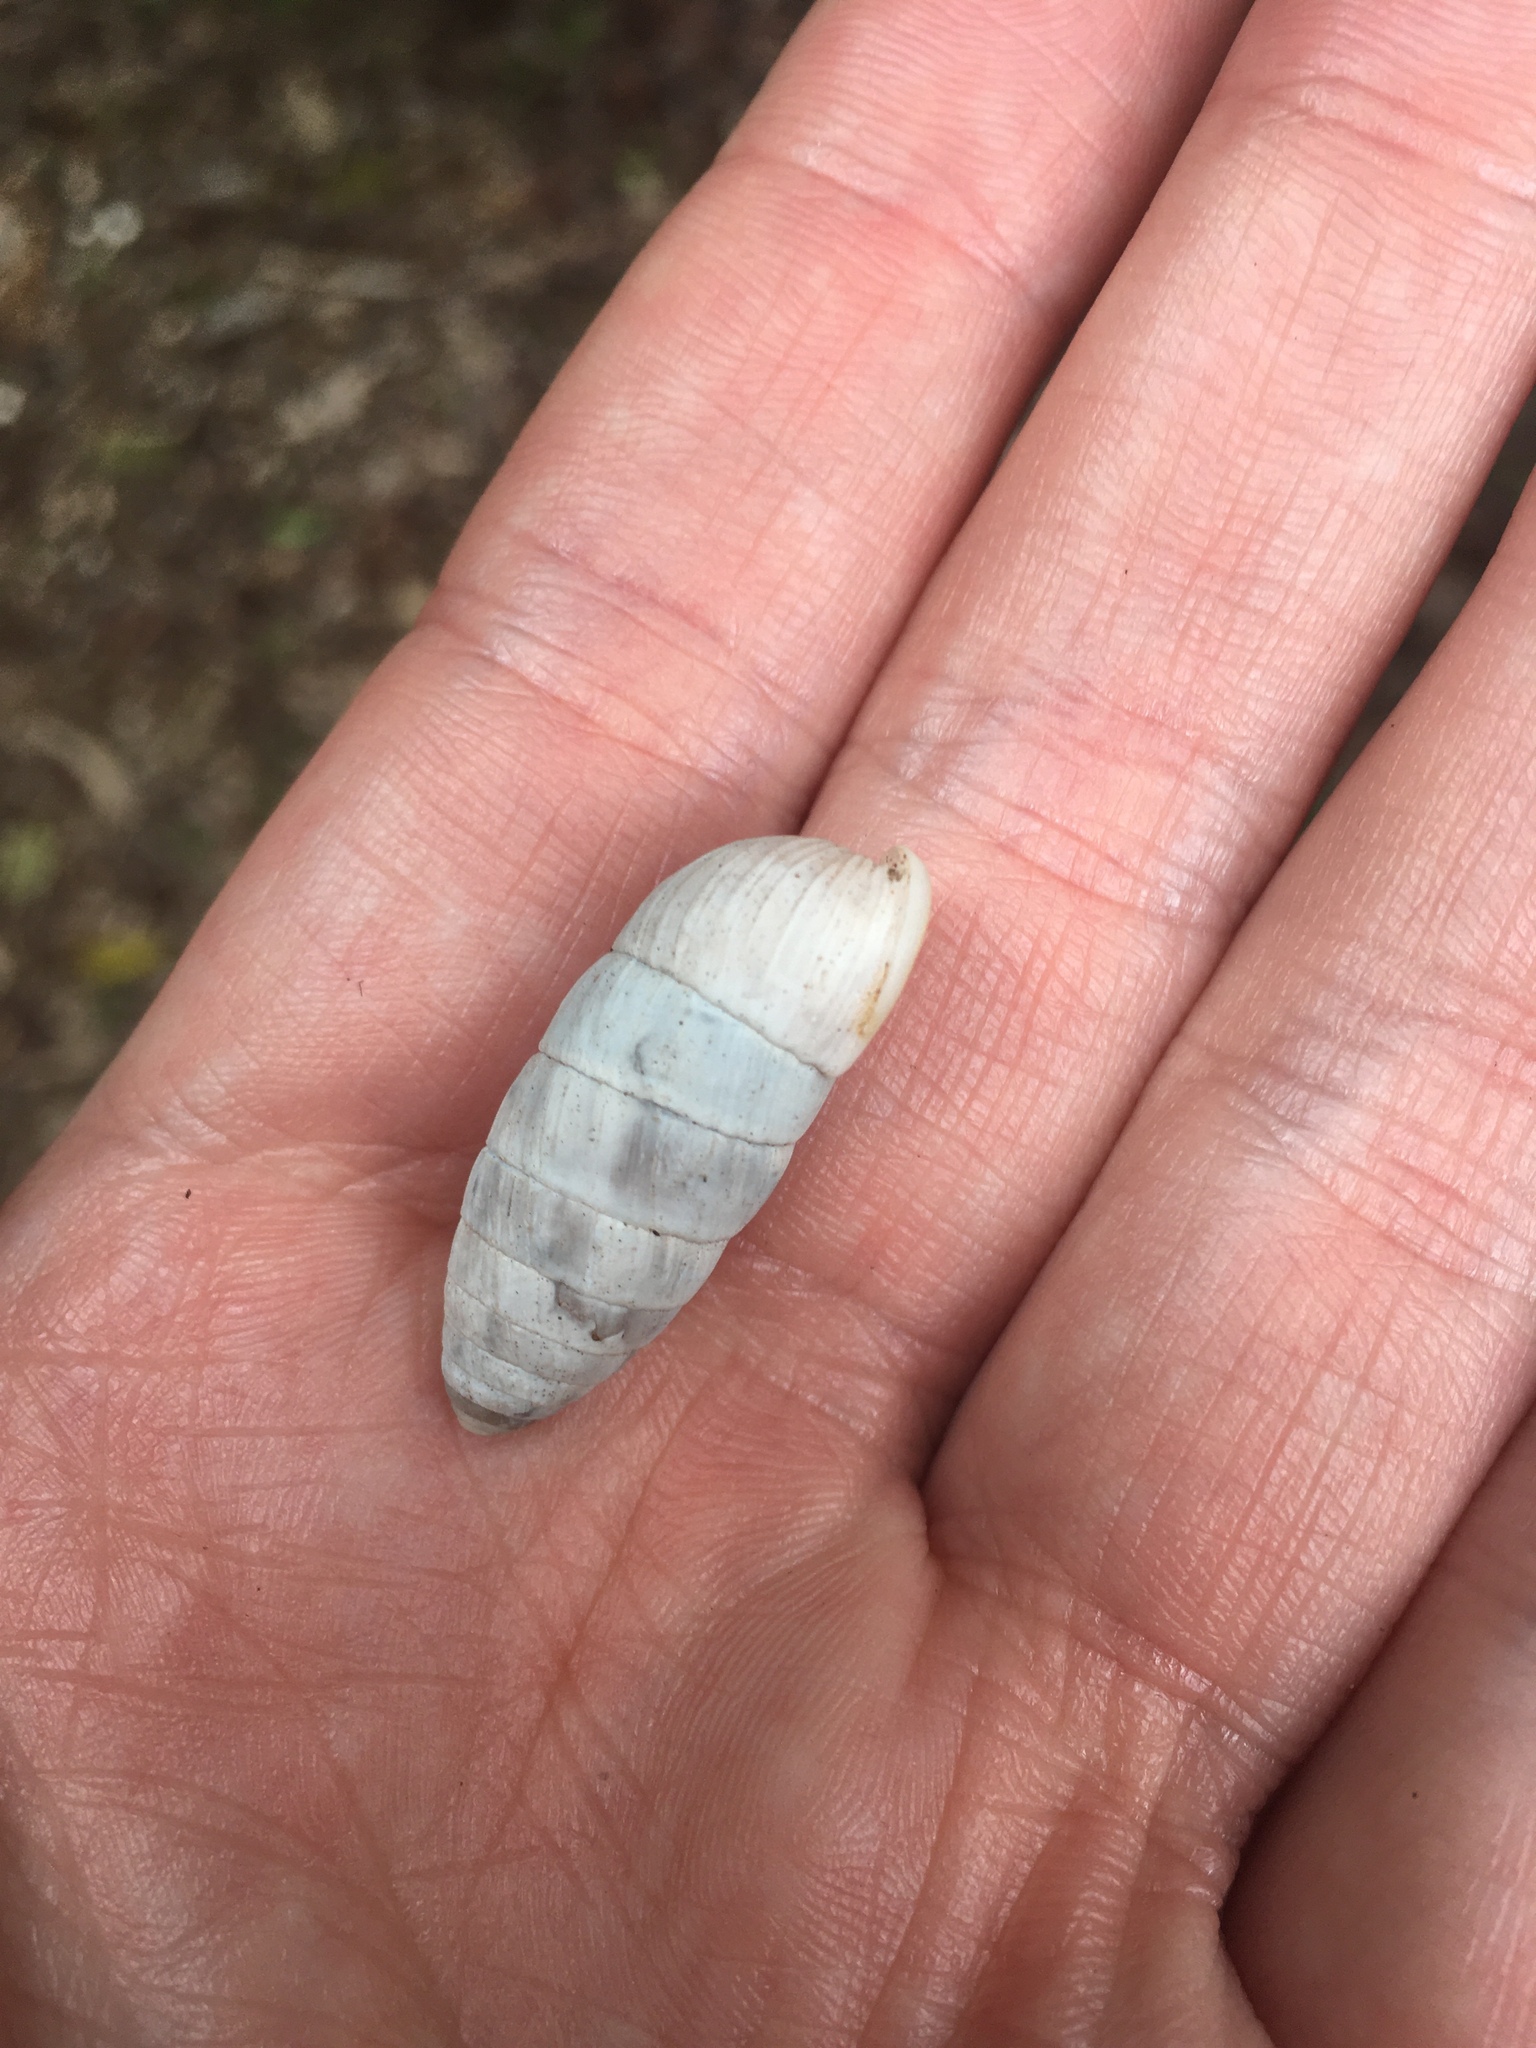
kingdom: Animalia
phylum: Mollusca
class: Gastropoda
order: Stylommatophora
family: Cerionidae
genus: Cerion
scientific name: Cerion incanum
